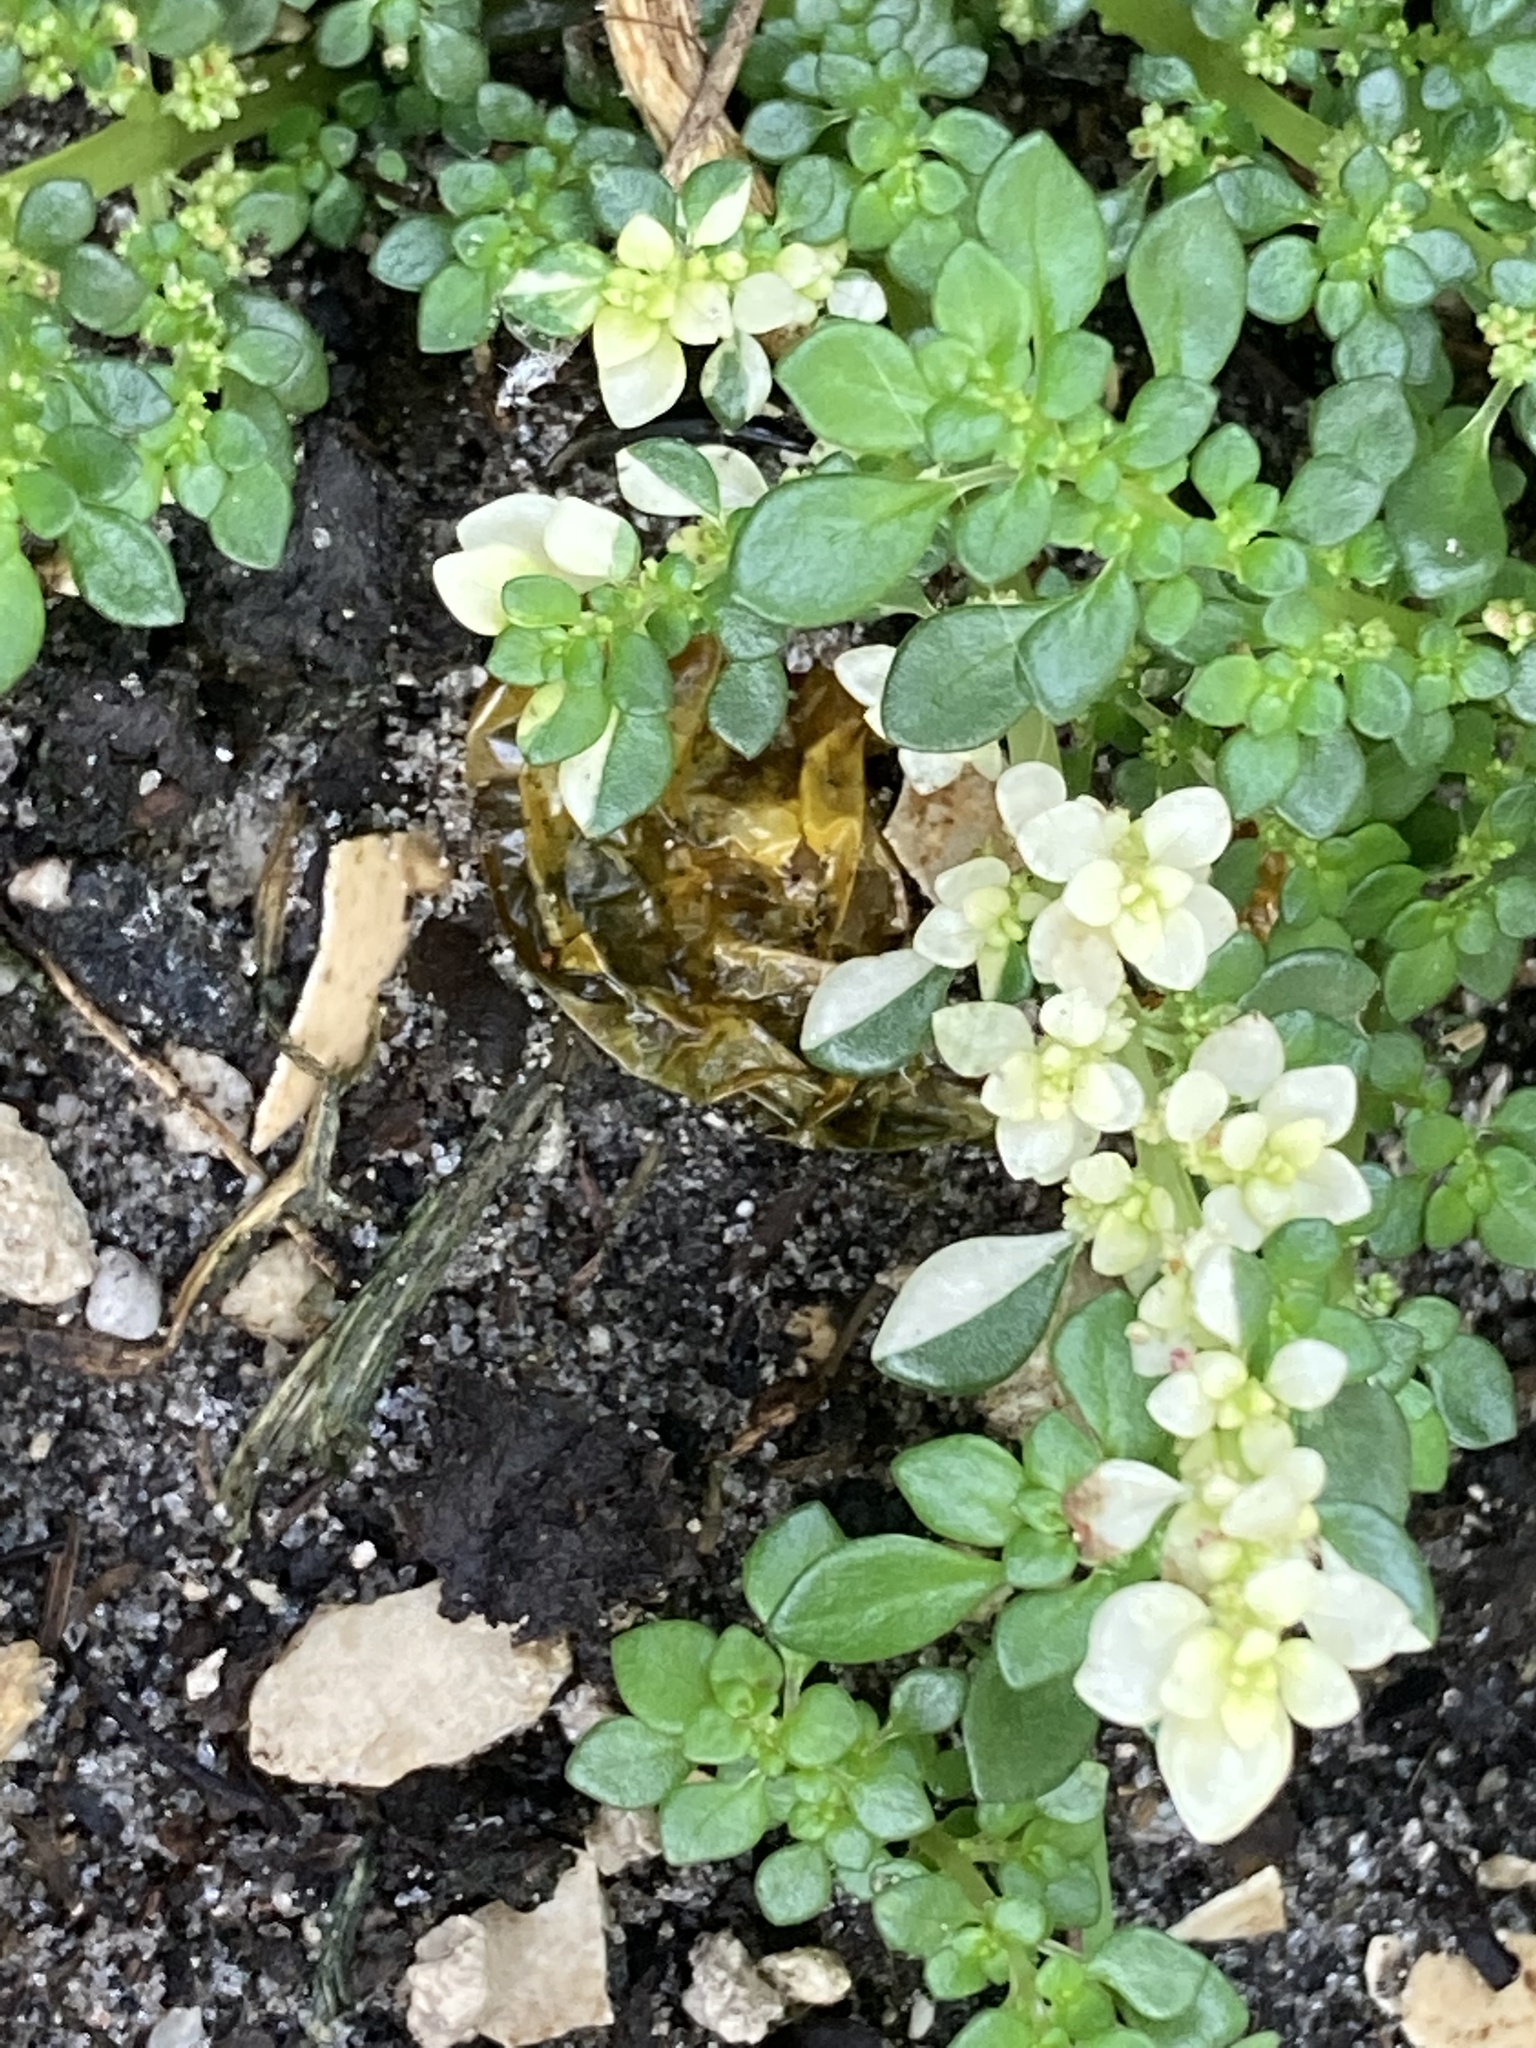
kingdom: Plantae
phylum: Tracheophyta
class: Magnoliopsida
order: Rosales
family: Urticaceae
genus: Pilea
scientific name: Pilea microphylla
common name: Artillery-plant
